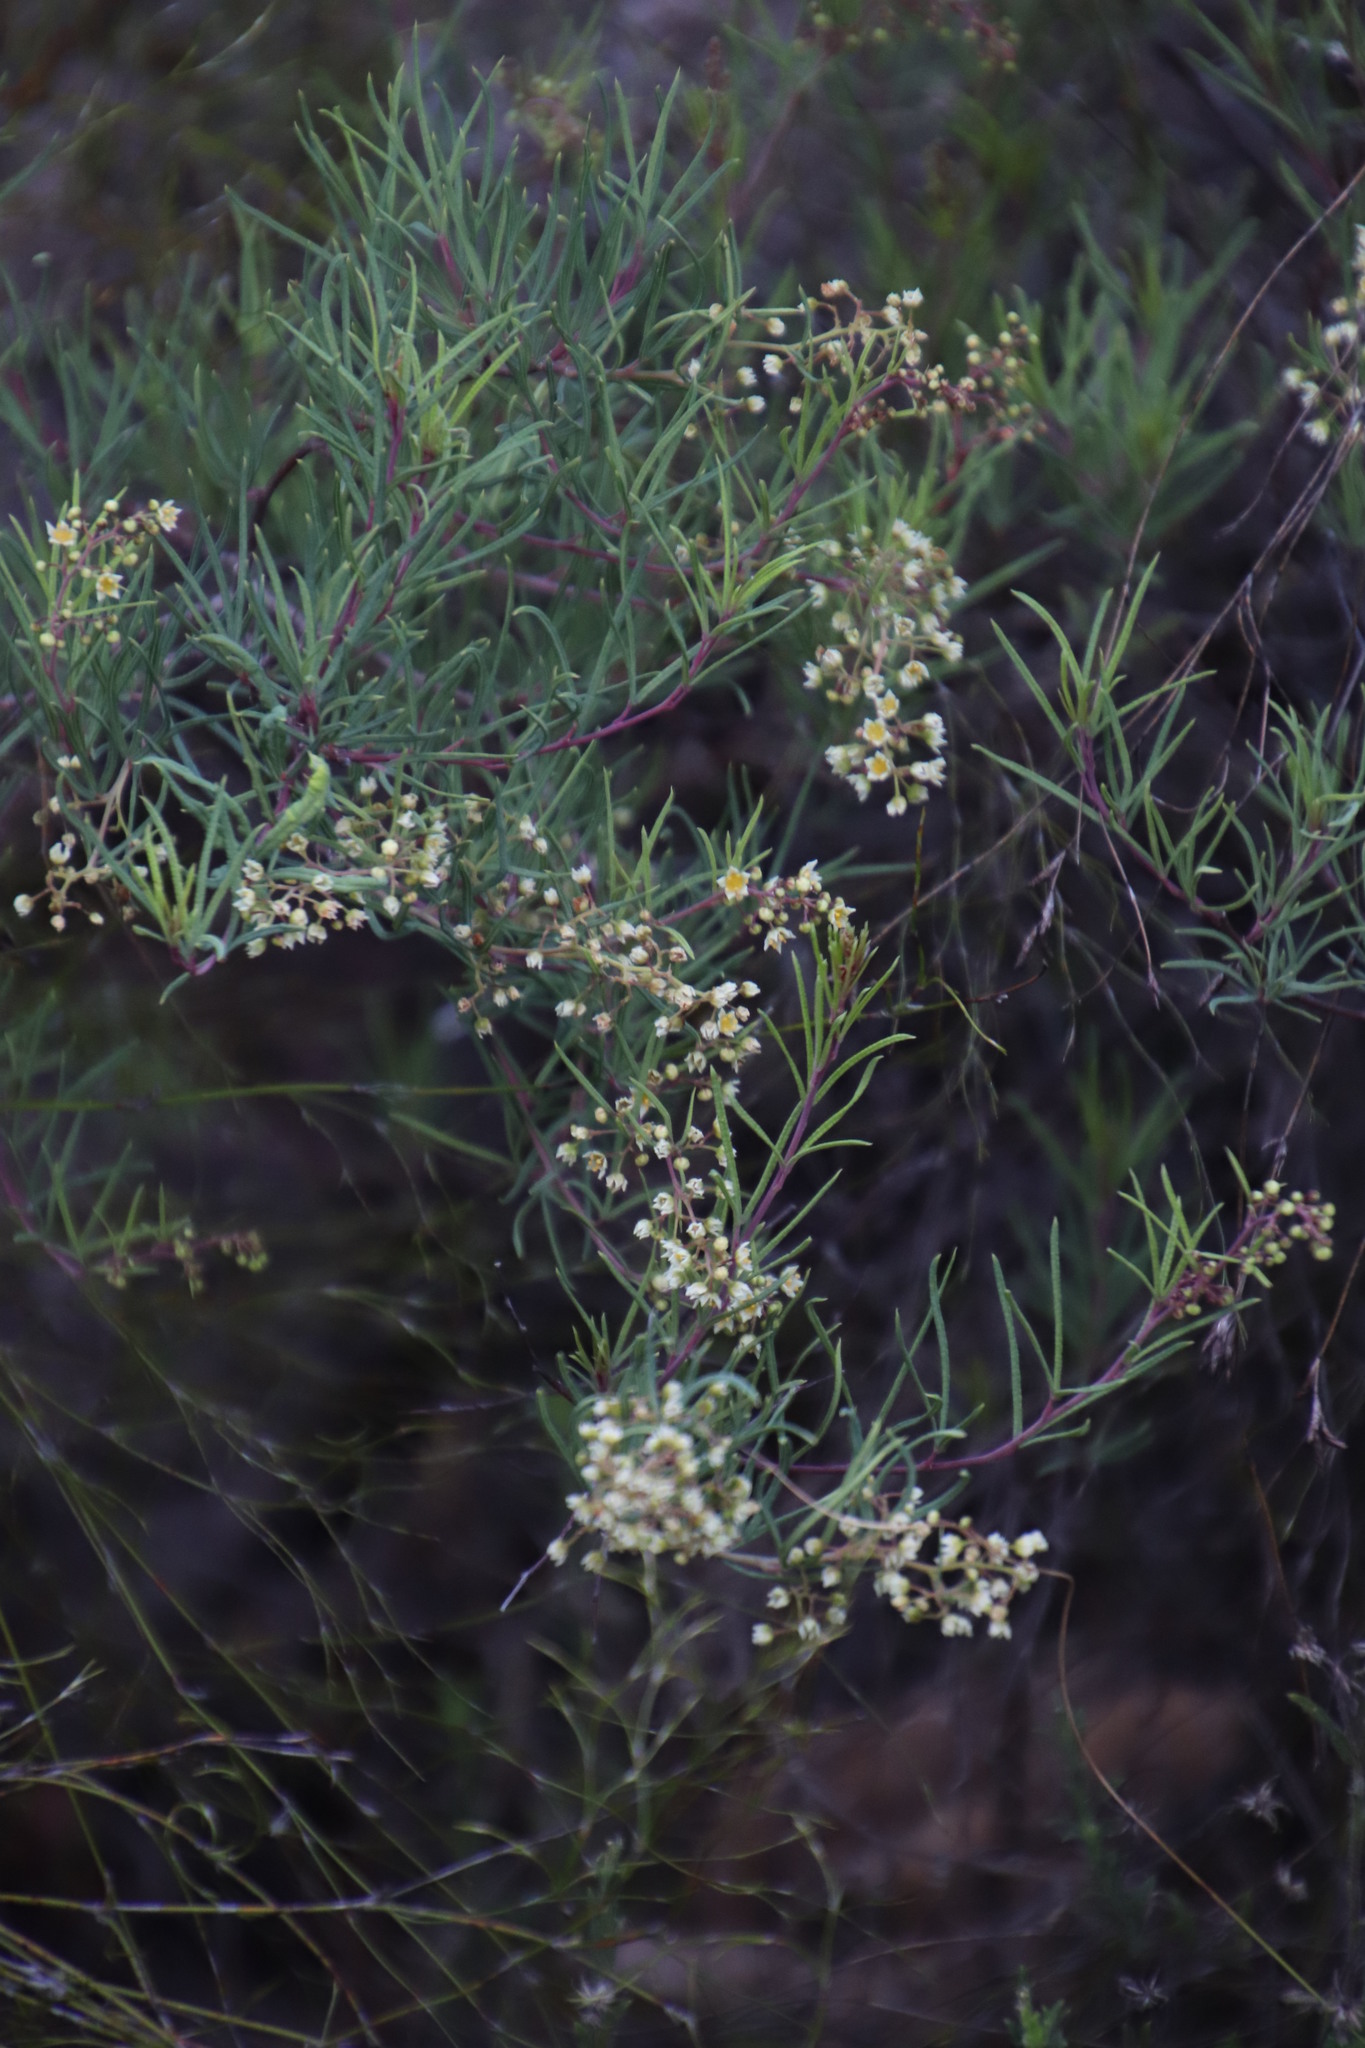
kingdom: Plantae
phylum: Tracheophyta
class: Magnoliopsida
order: Sapindales
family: Anacardiaceae
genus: Searsia
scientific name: Searsia rosmarinifolia
